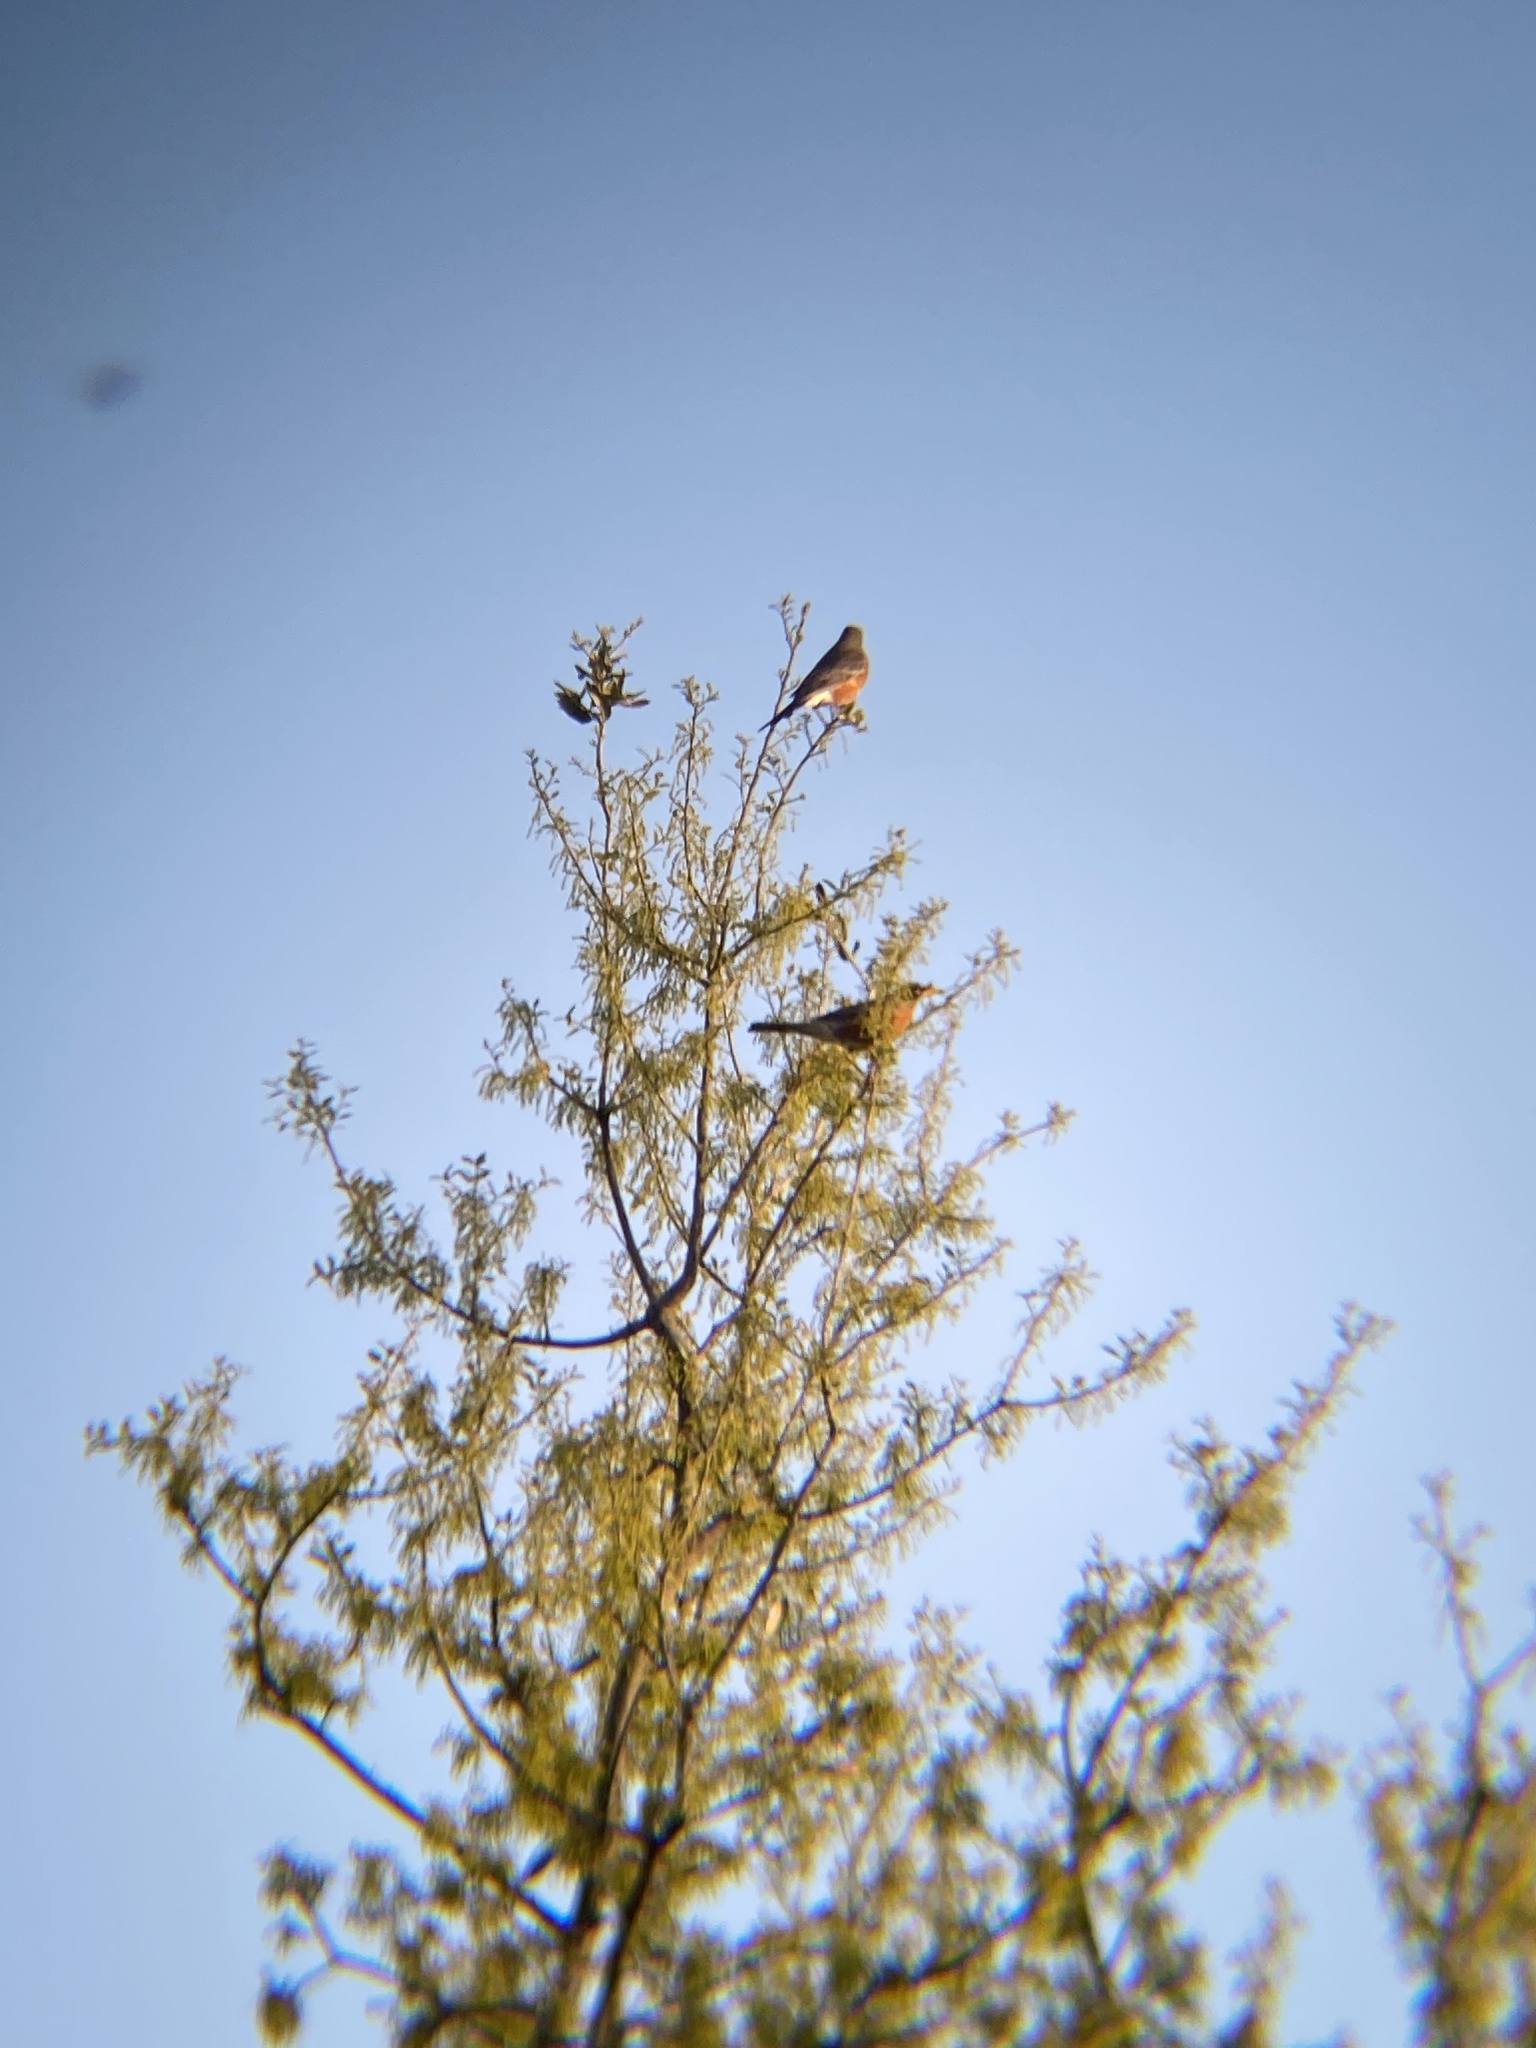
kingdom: Animalia
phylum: Chordata
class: Aves
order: Passeriformes
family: Turdidae
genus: Turdus
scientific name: Turdus migratorius
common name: American robin
